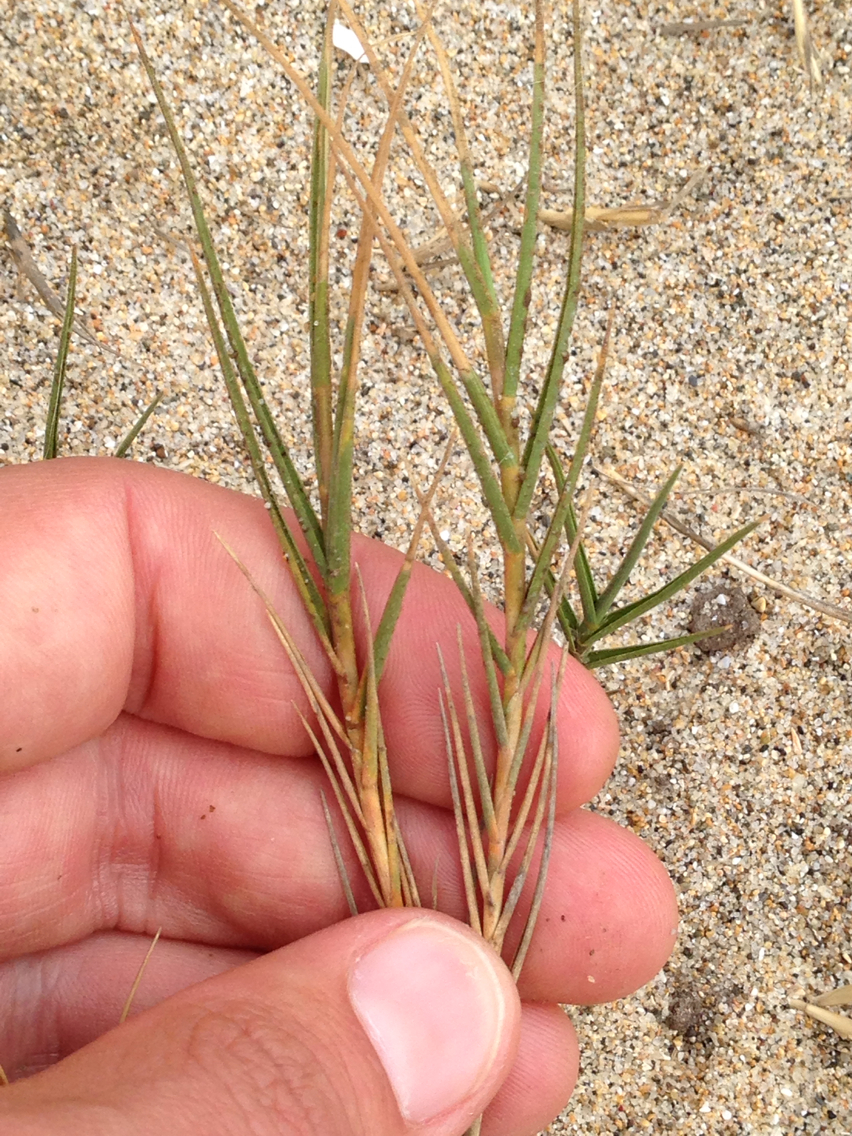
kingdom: Plantae
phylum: Tracheophyta
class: Liliopsida
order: Poales
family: Poaceae
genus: Distichlis
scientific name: Distichlis spicata
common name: Saltgrass
